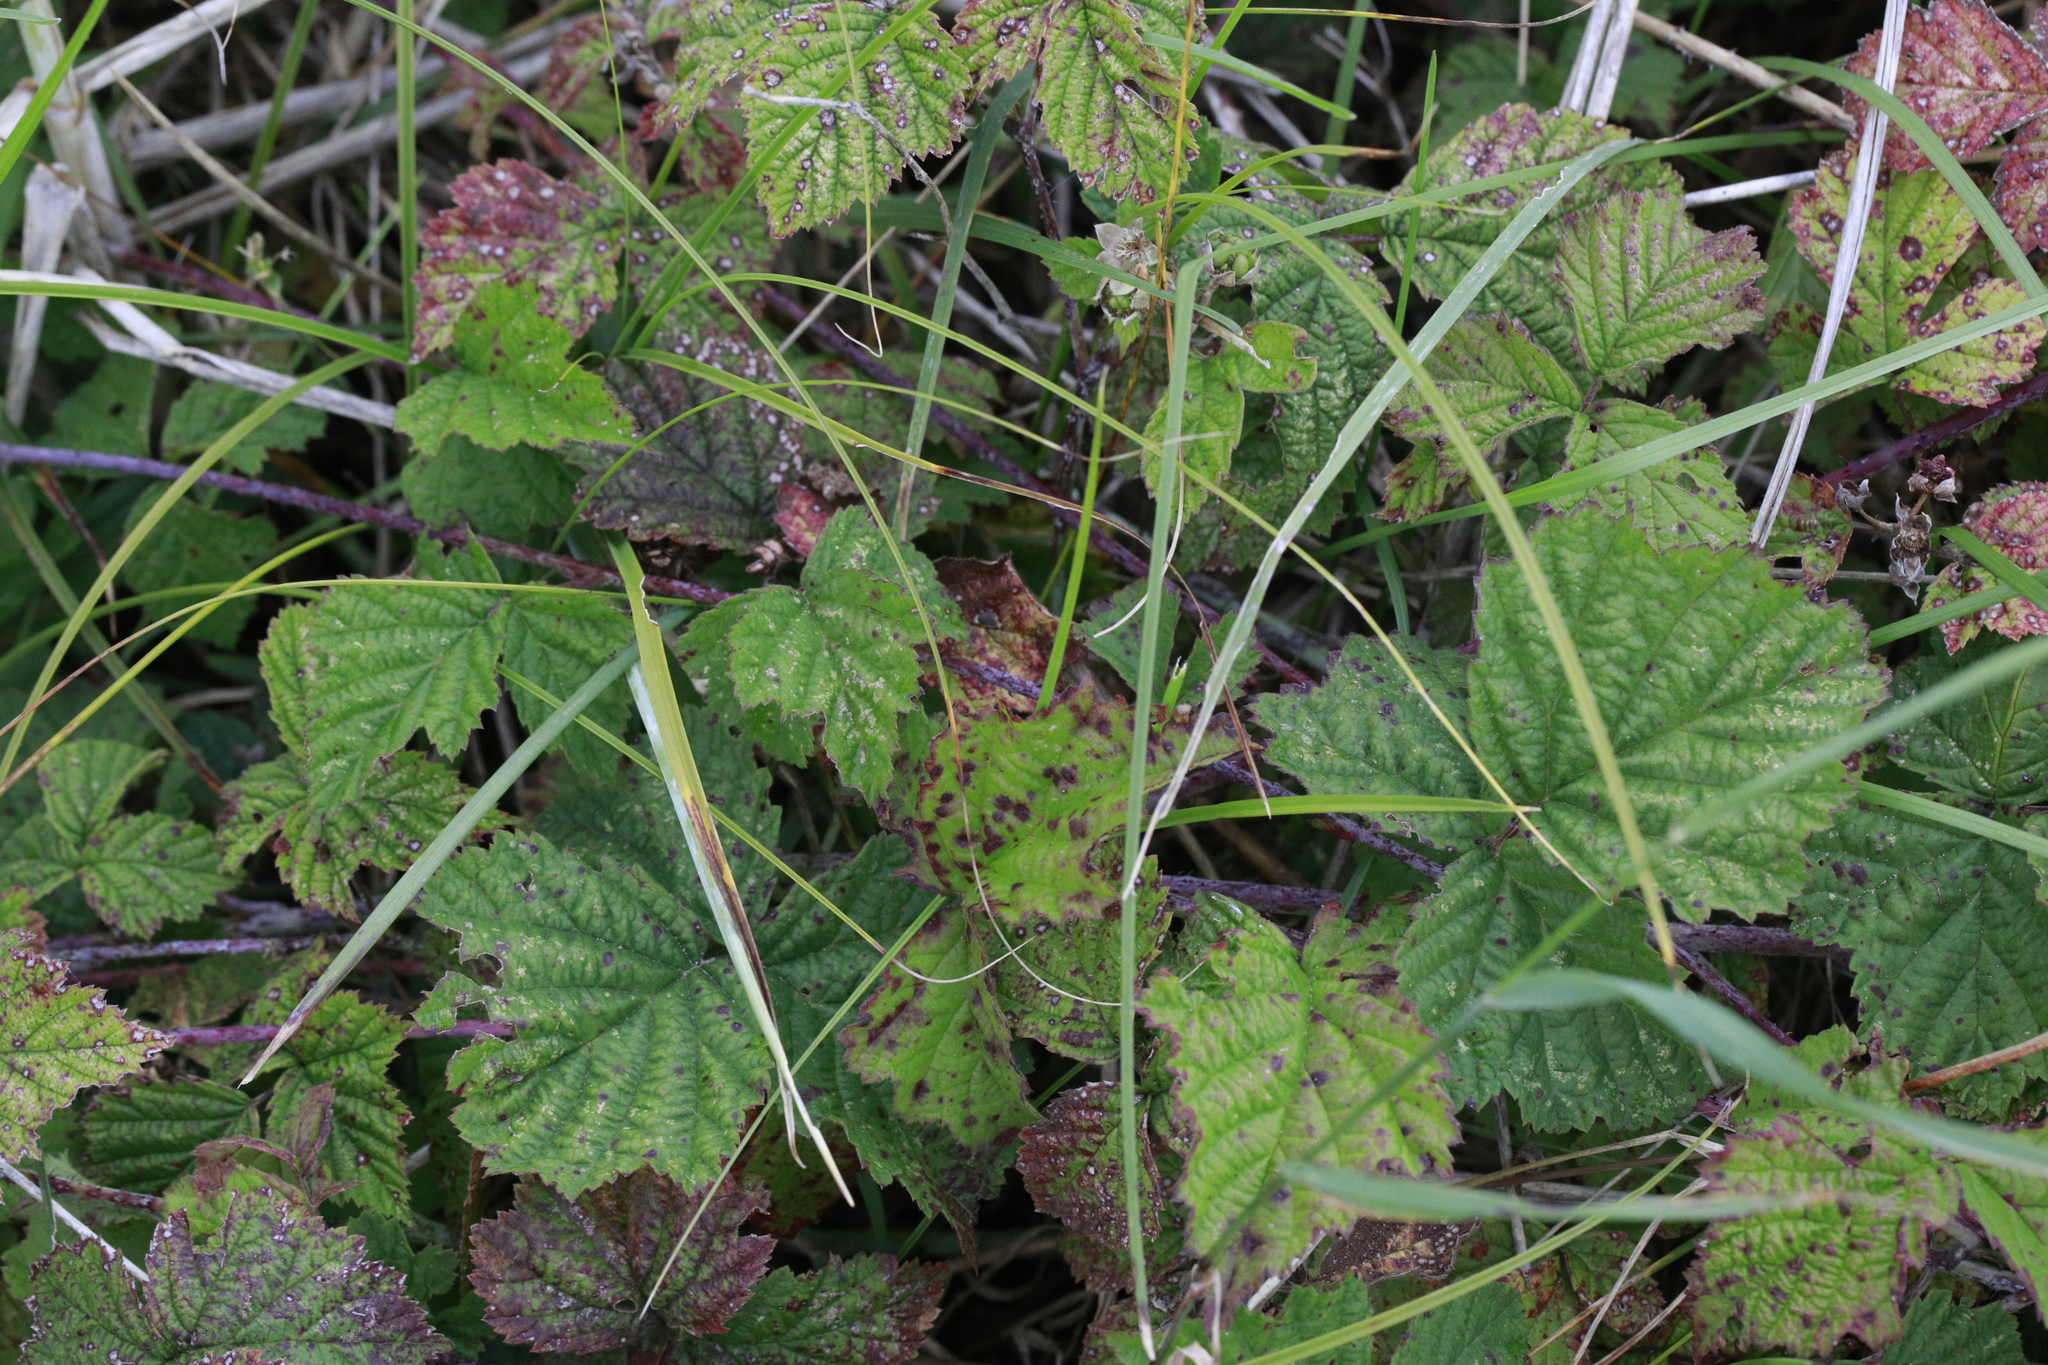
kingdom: Plantae
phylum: Tracheophyta
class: Magnoliopsida
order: Rosales
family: Rosaceae
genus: Rubus
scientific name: Rubus caesius
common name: Dewberry
